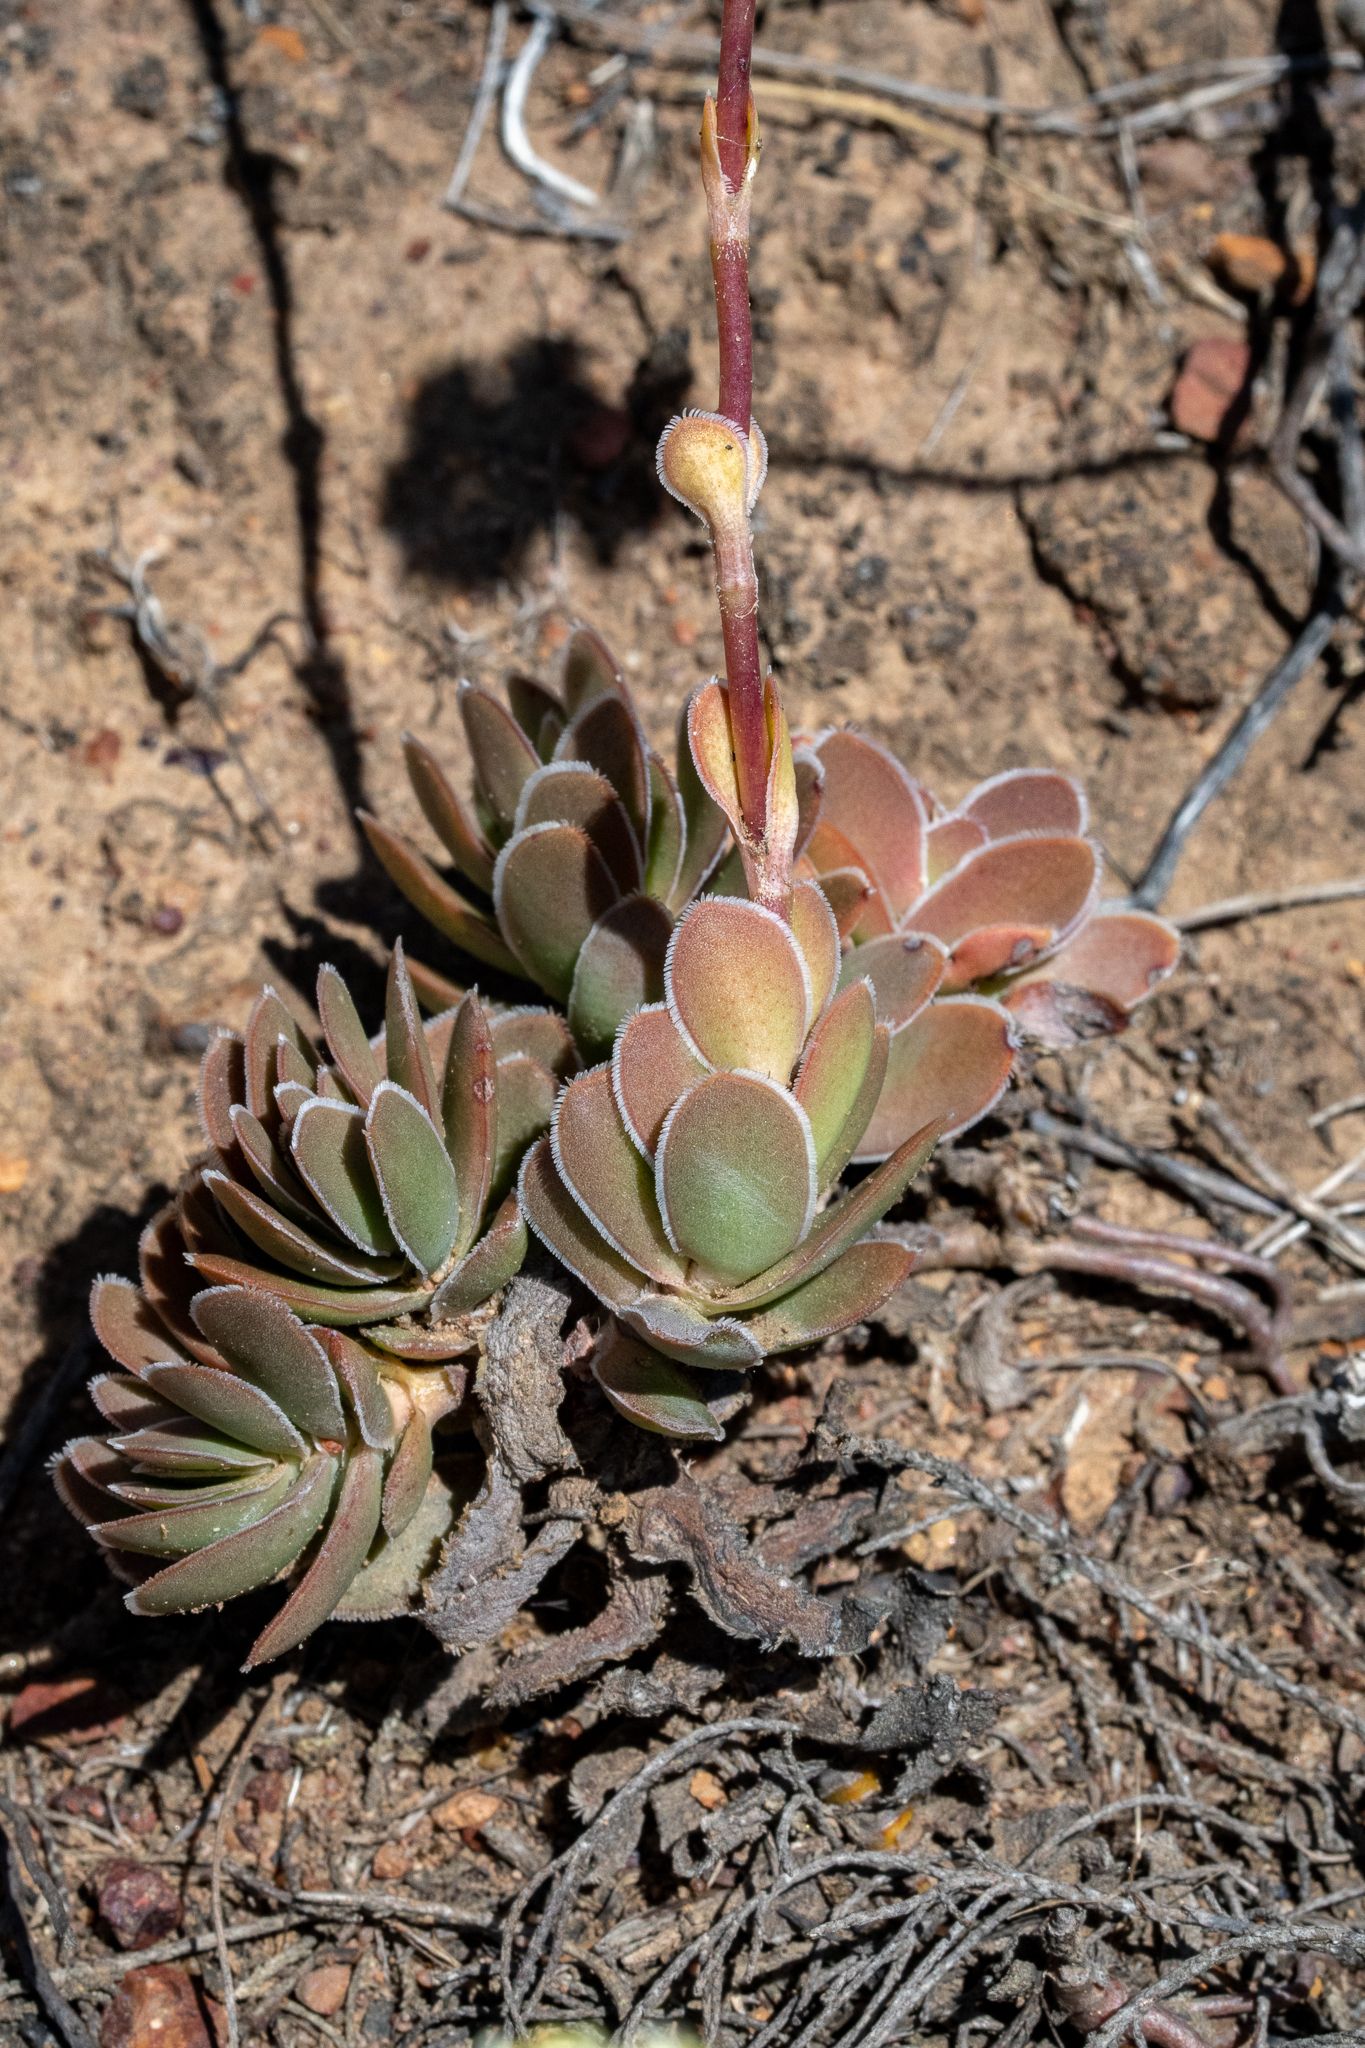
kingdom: Plantae
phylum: Tracheophyta
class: Magnoliopsida
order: Saxifragales
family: Crassulaceae
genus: Crassula
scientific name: Crassula ciliata
